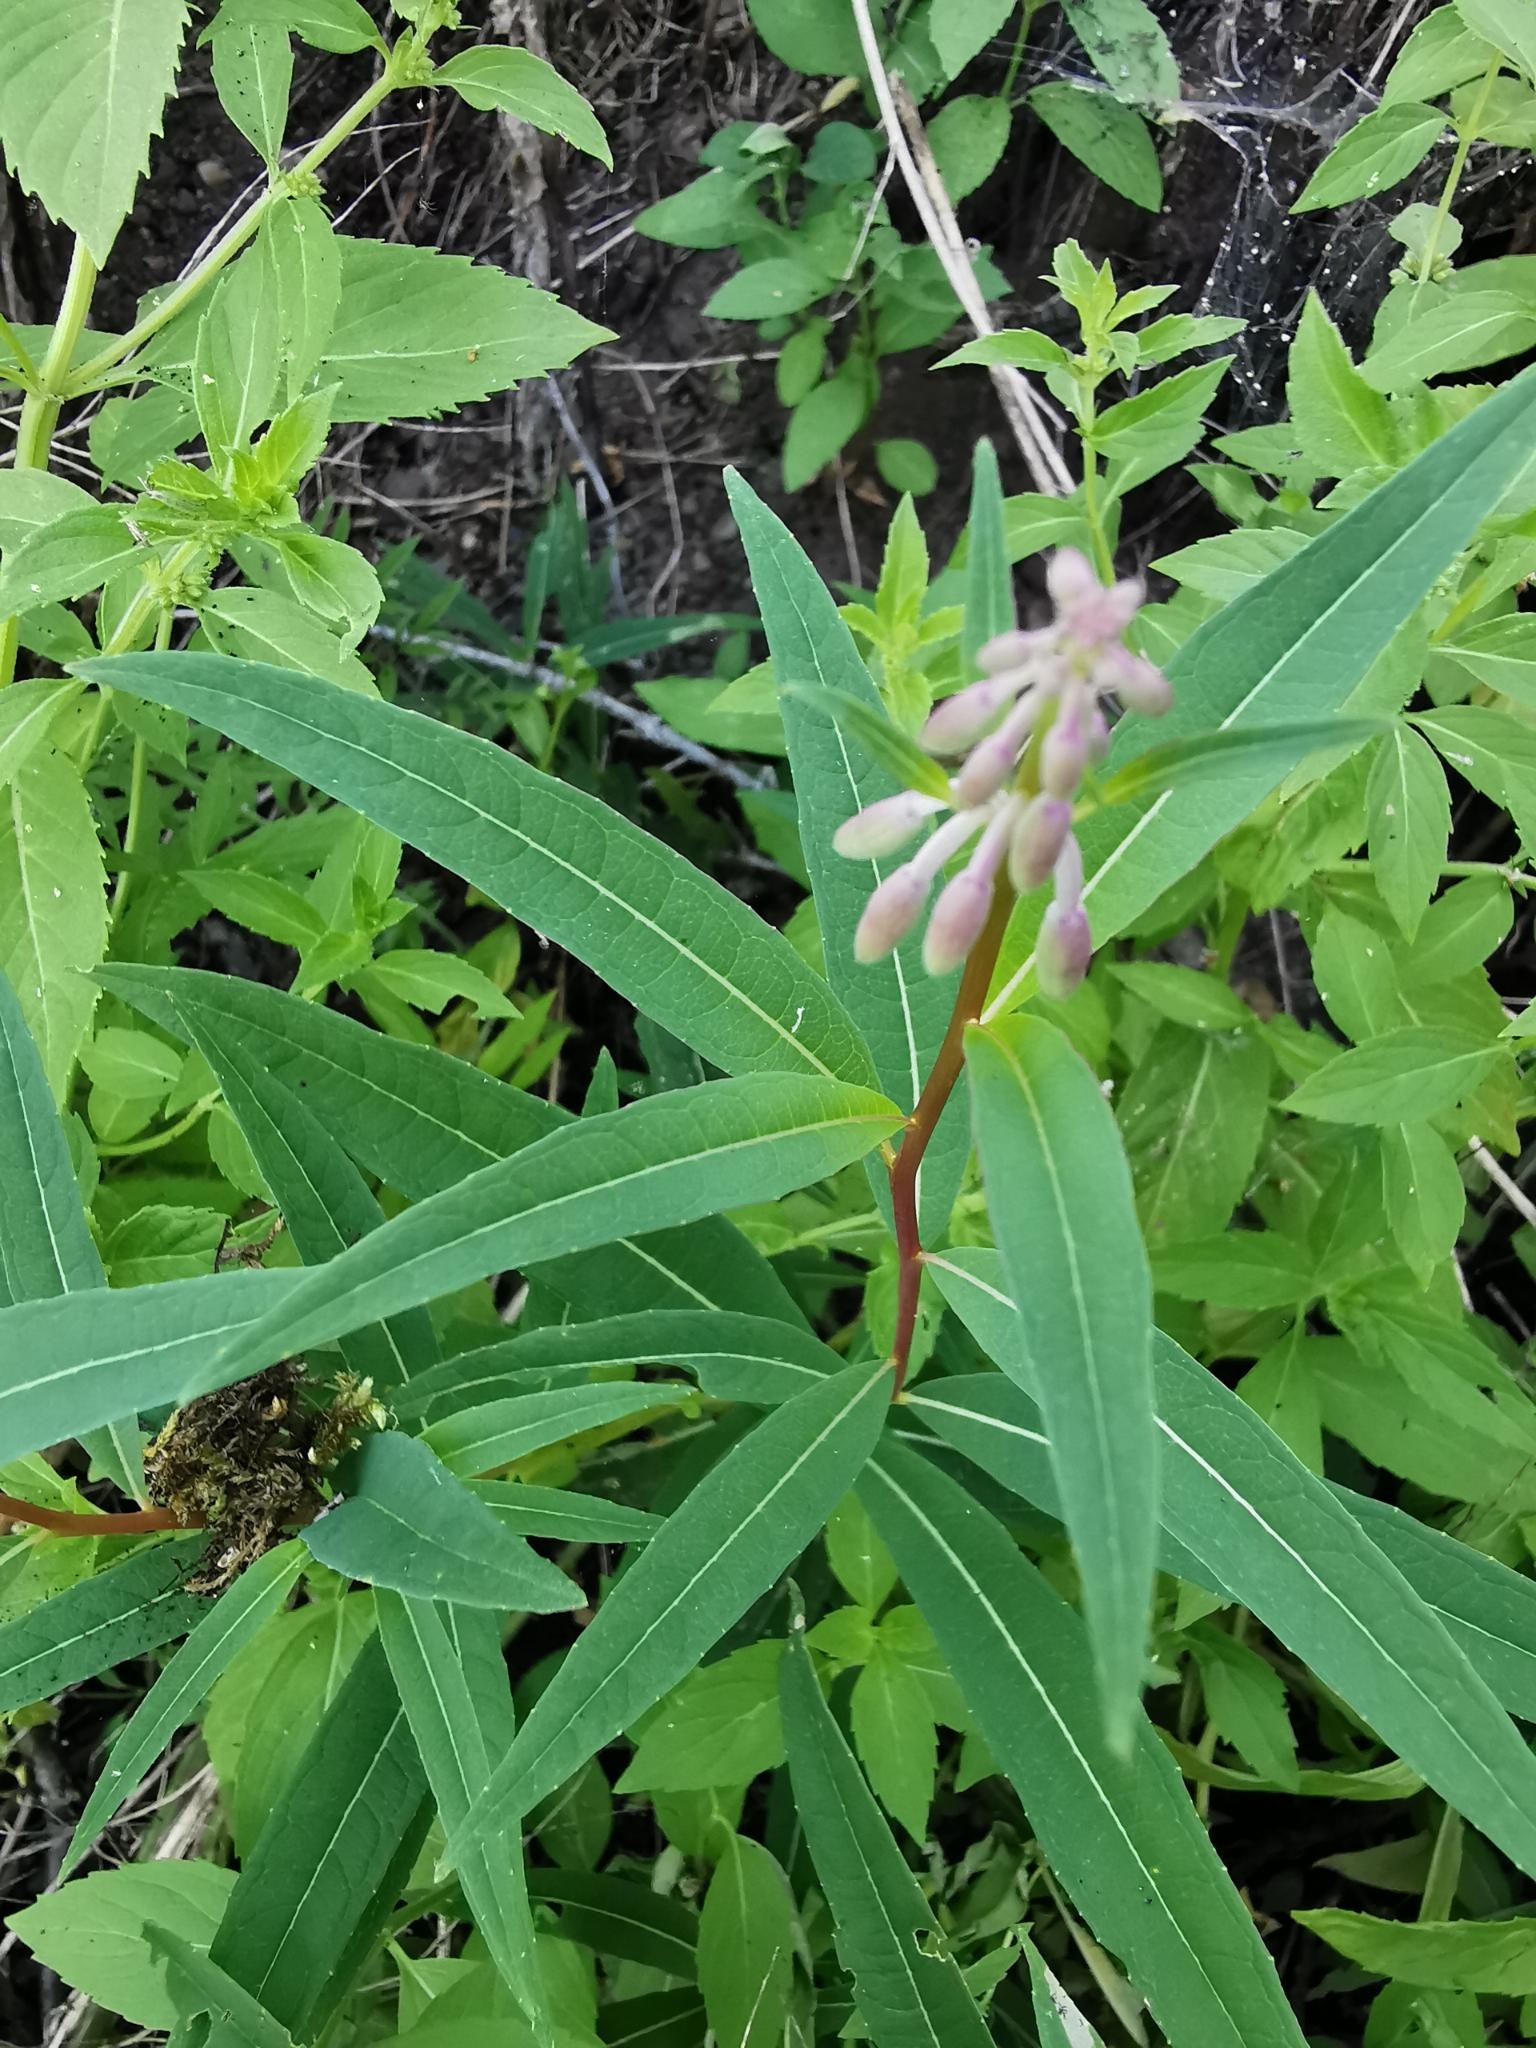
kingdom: Plantae
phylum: Tracheophyta
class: Magnoliopsida
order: Myrtales
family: Onagraceae
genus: Chamaenerion
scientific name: Chamaenerion angustifolium
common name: Fireweed
